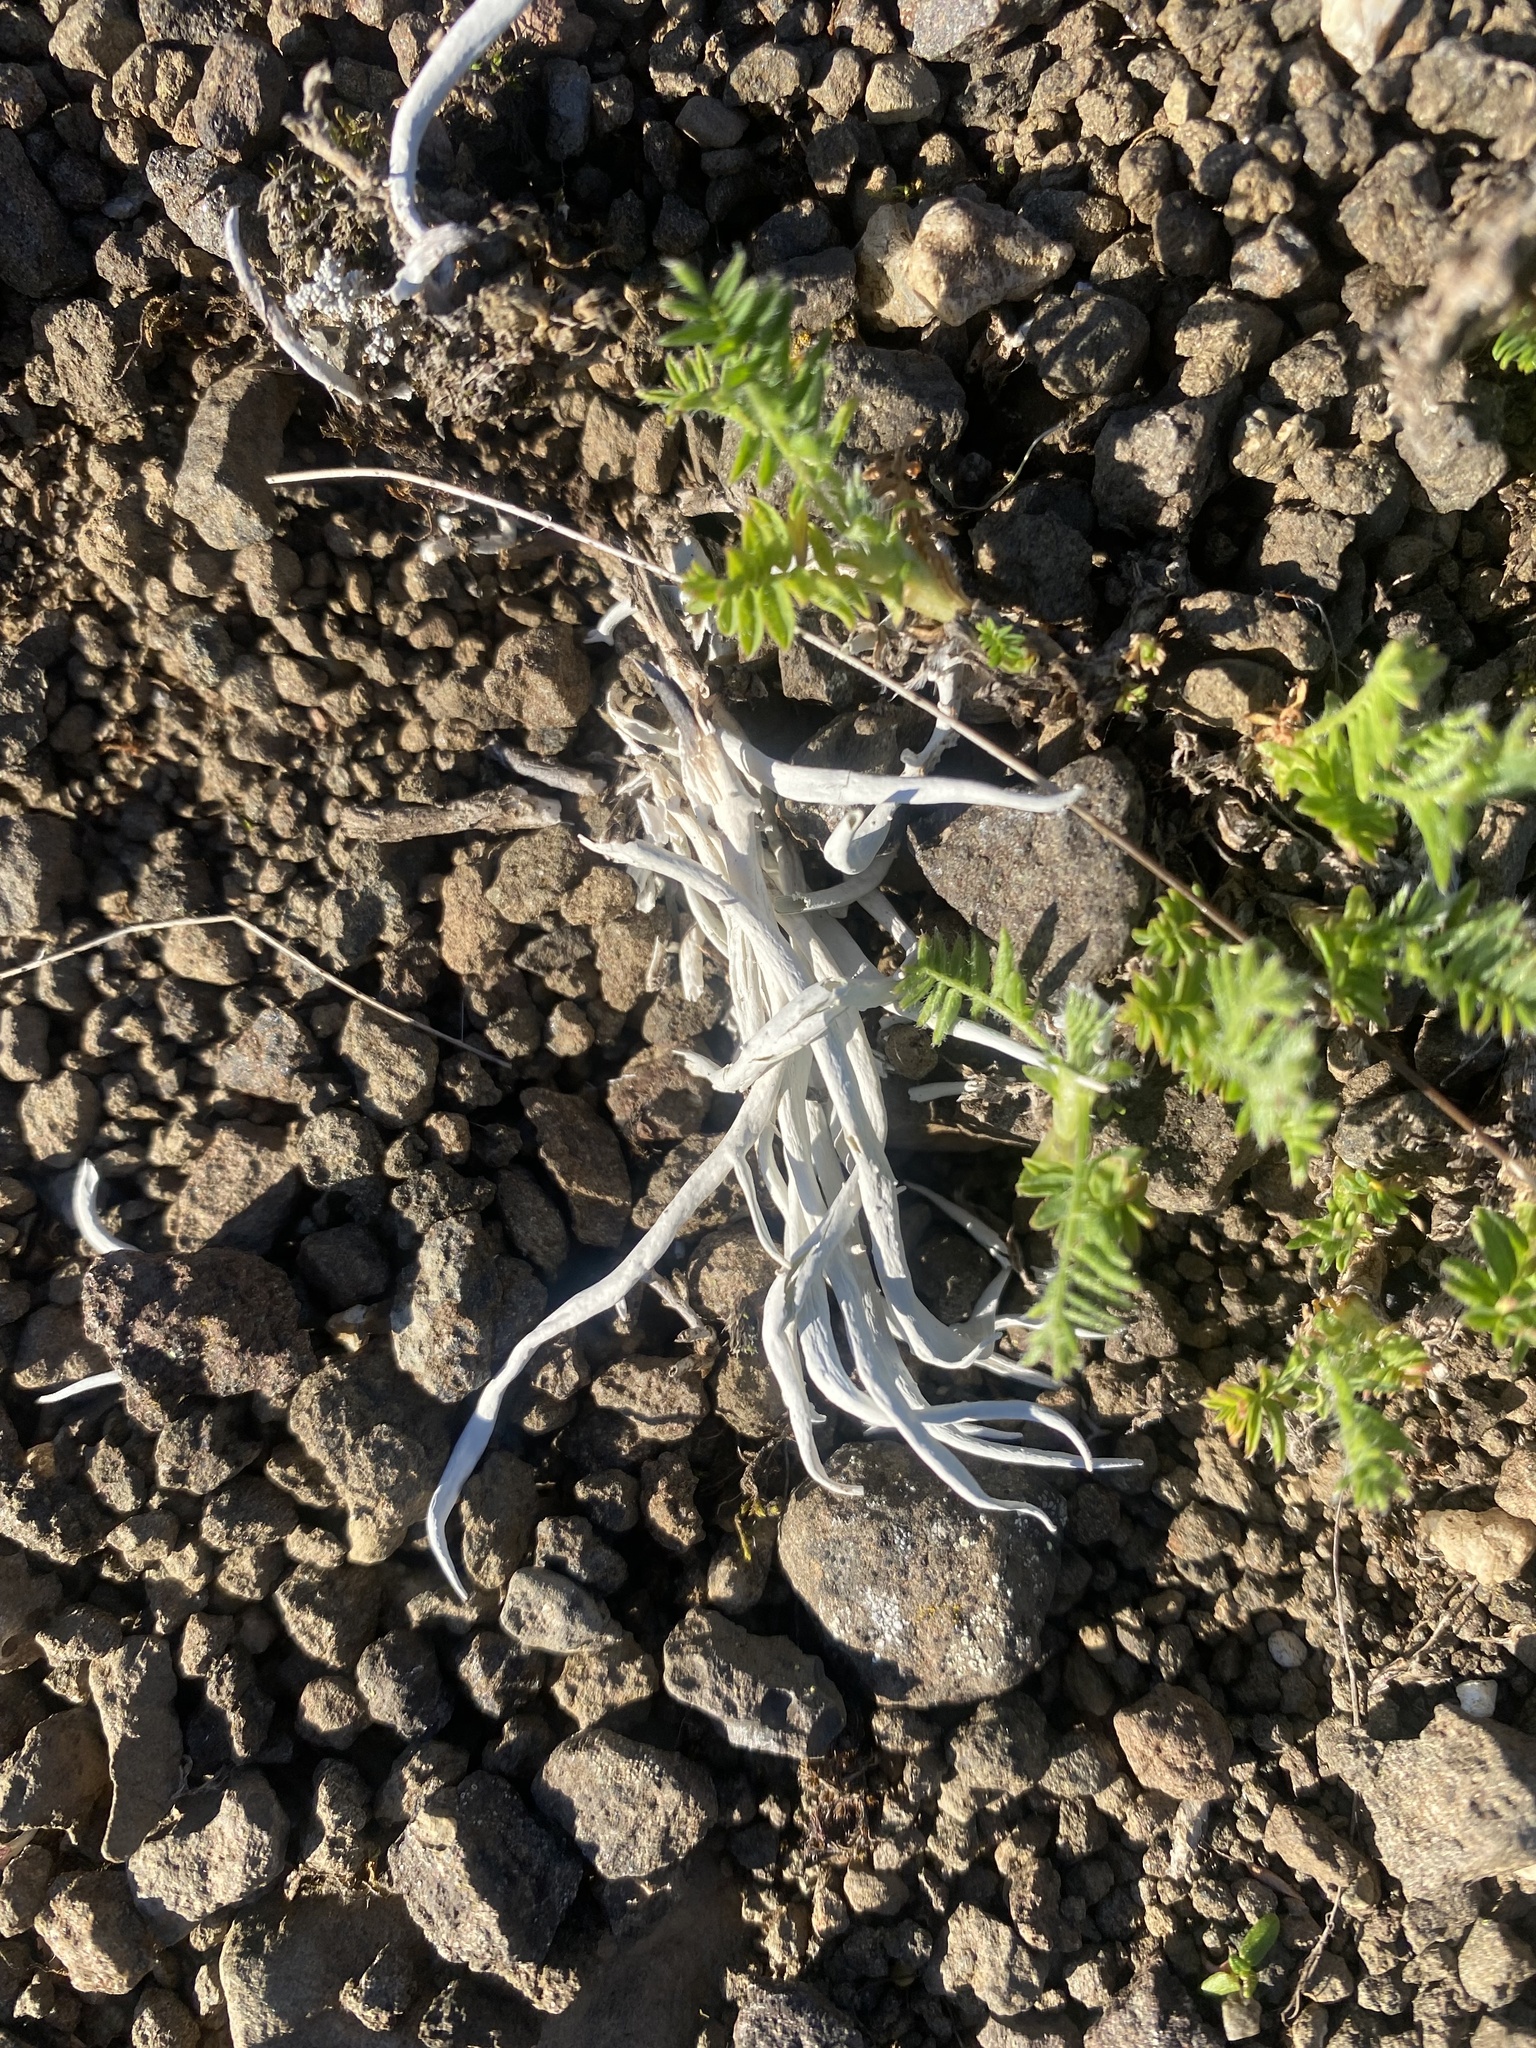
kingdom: Fungi
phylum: Ascomycota
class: Lecanoromycetes
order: Pertusariales
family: Icmadophilaceae
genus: Thamnolia
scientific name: Thamnolia vermicularis
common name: Whiteworm lichen
